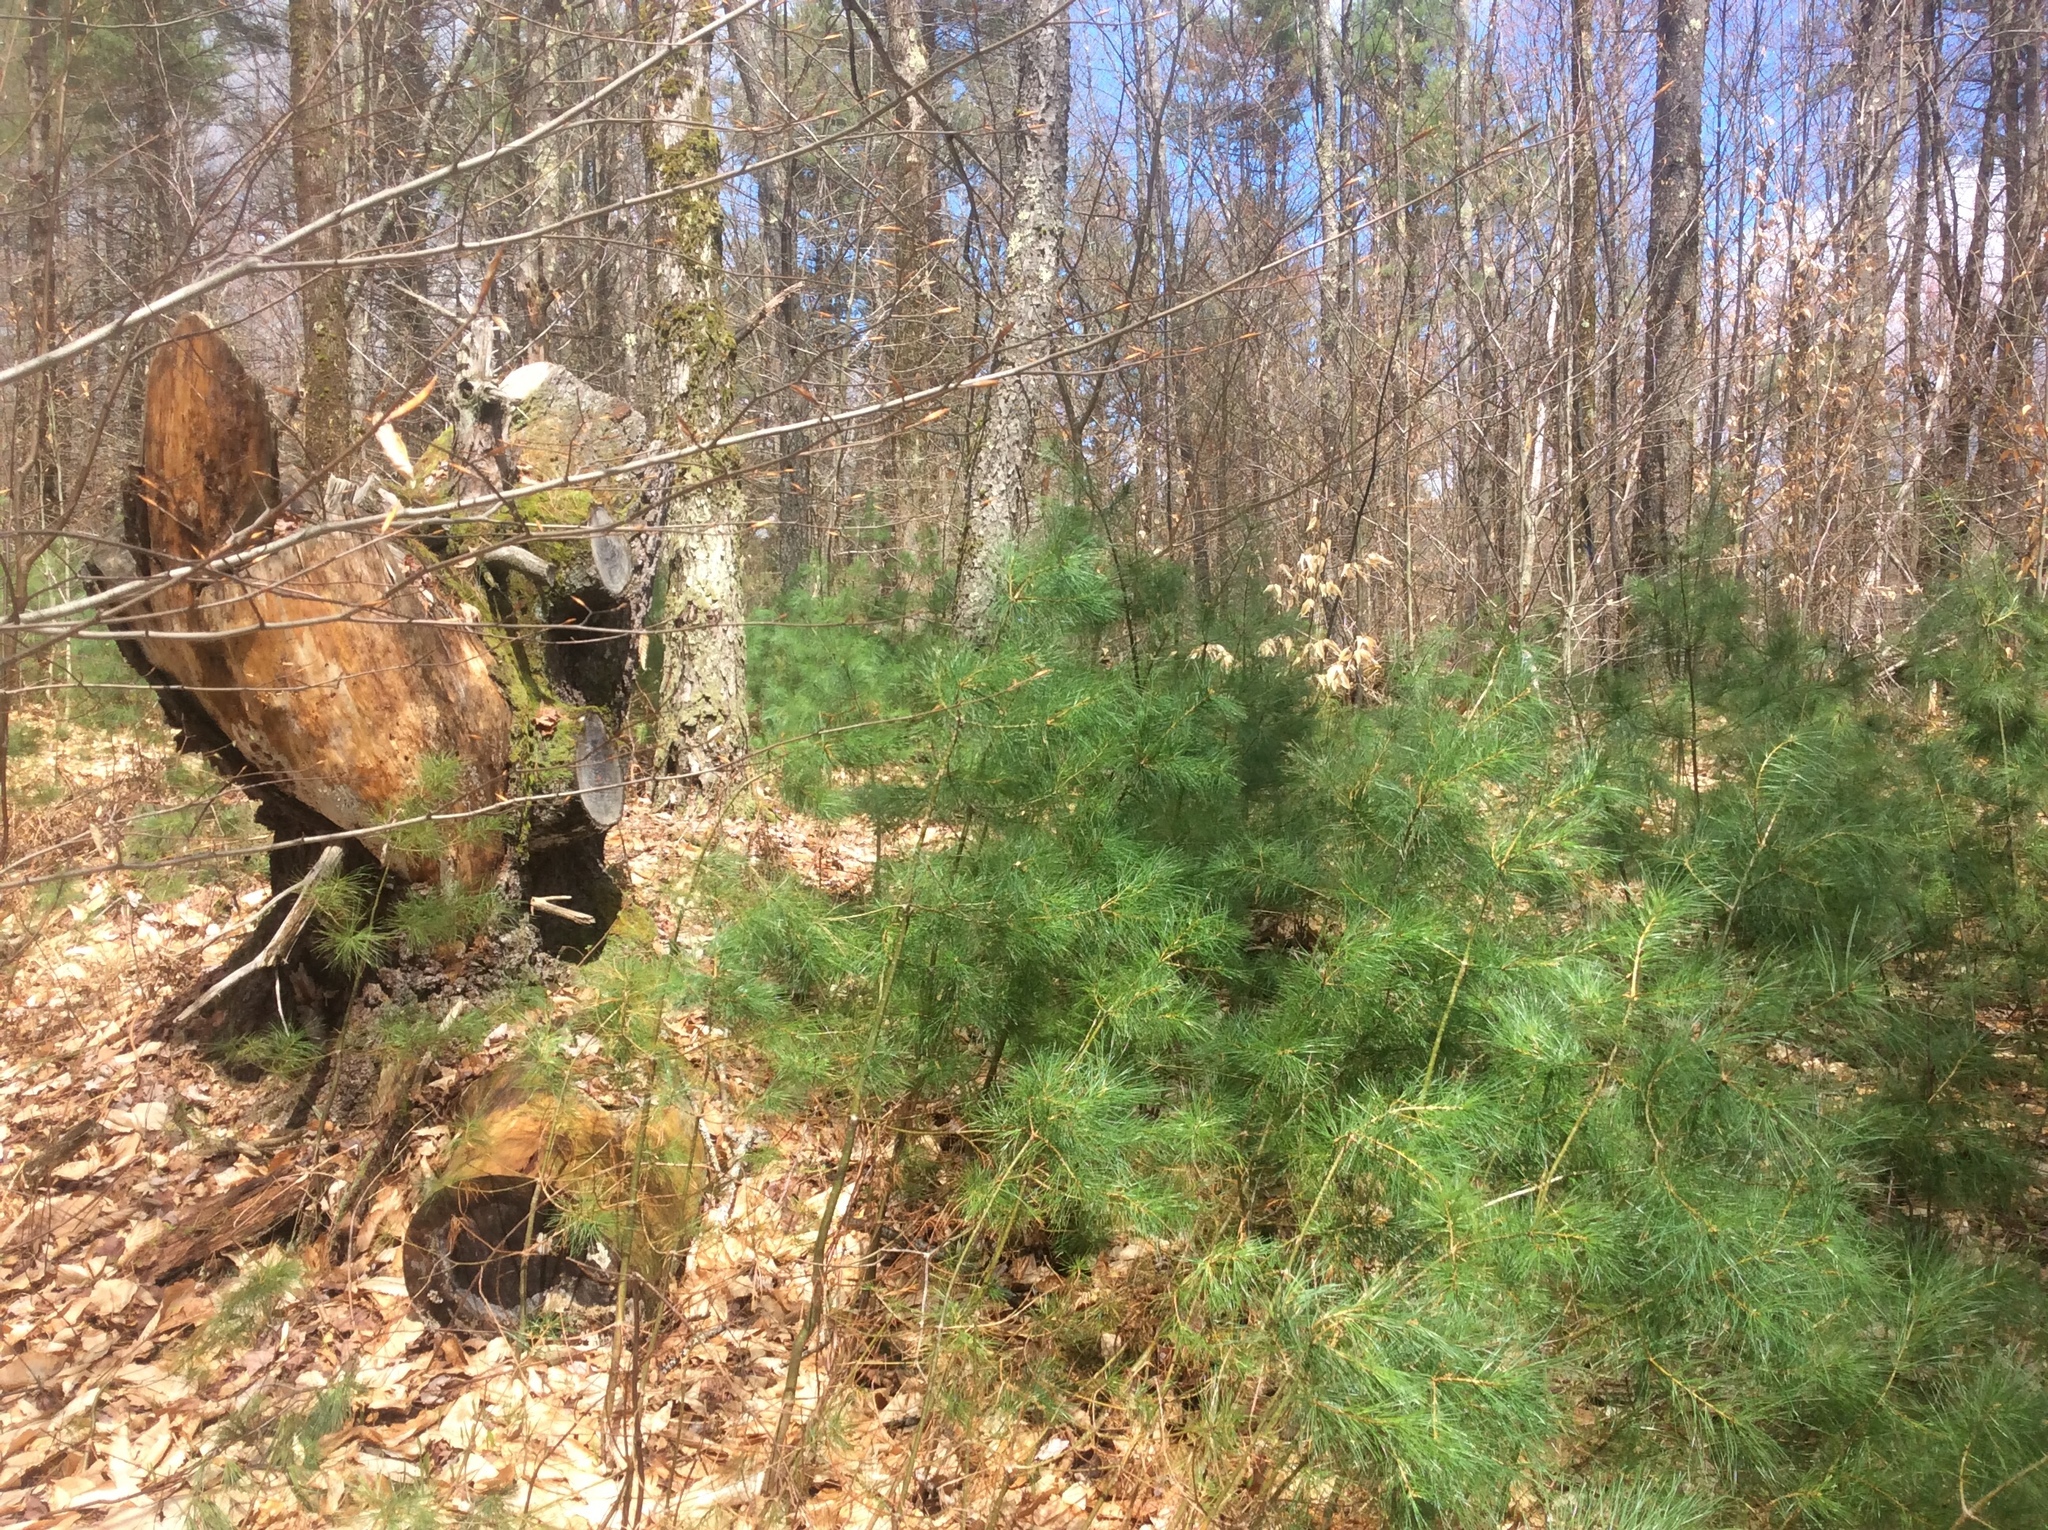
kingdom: Plantae
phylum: Tracheophyta
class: Pinopsida
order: Pinales
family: Pinaceae
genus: Pinus
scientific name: Pinus strobus
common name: Weymouth pine
